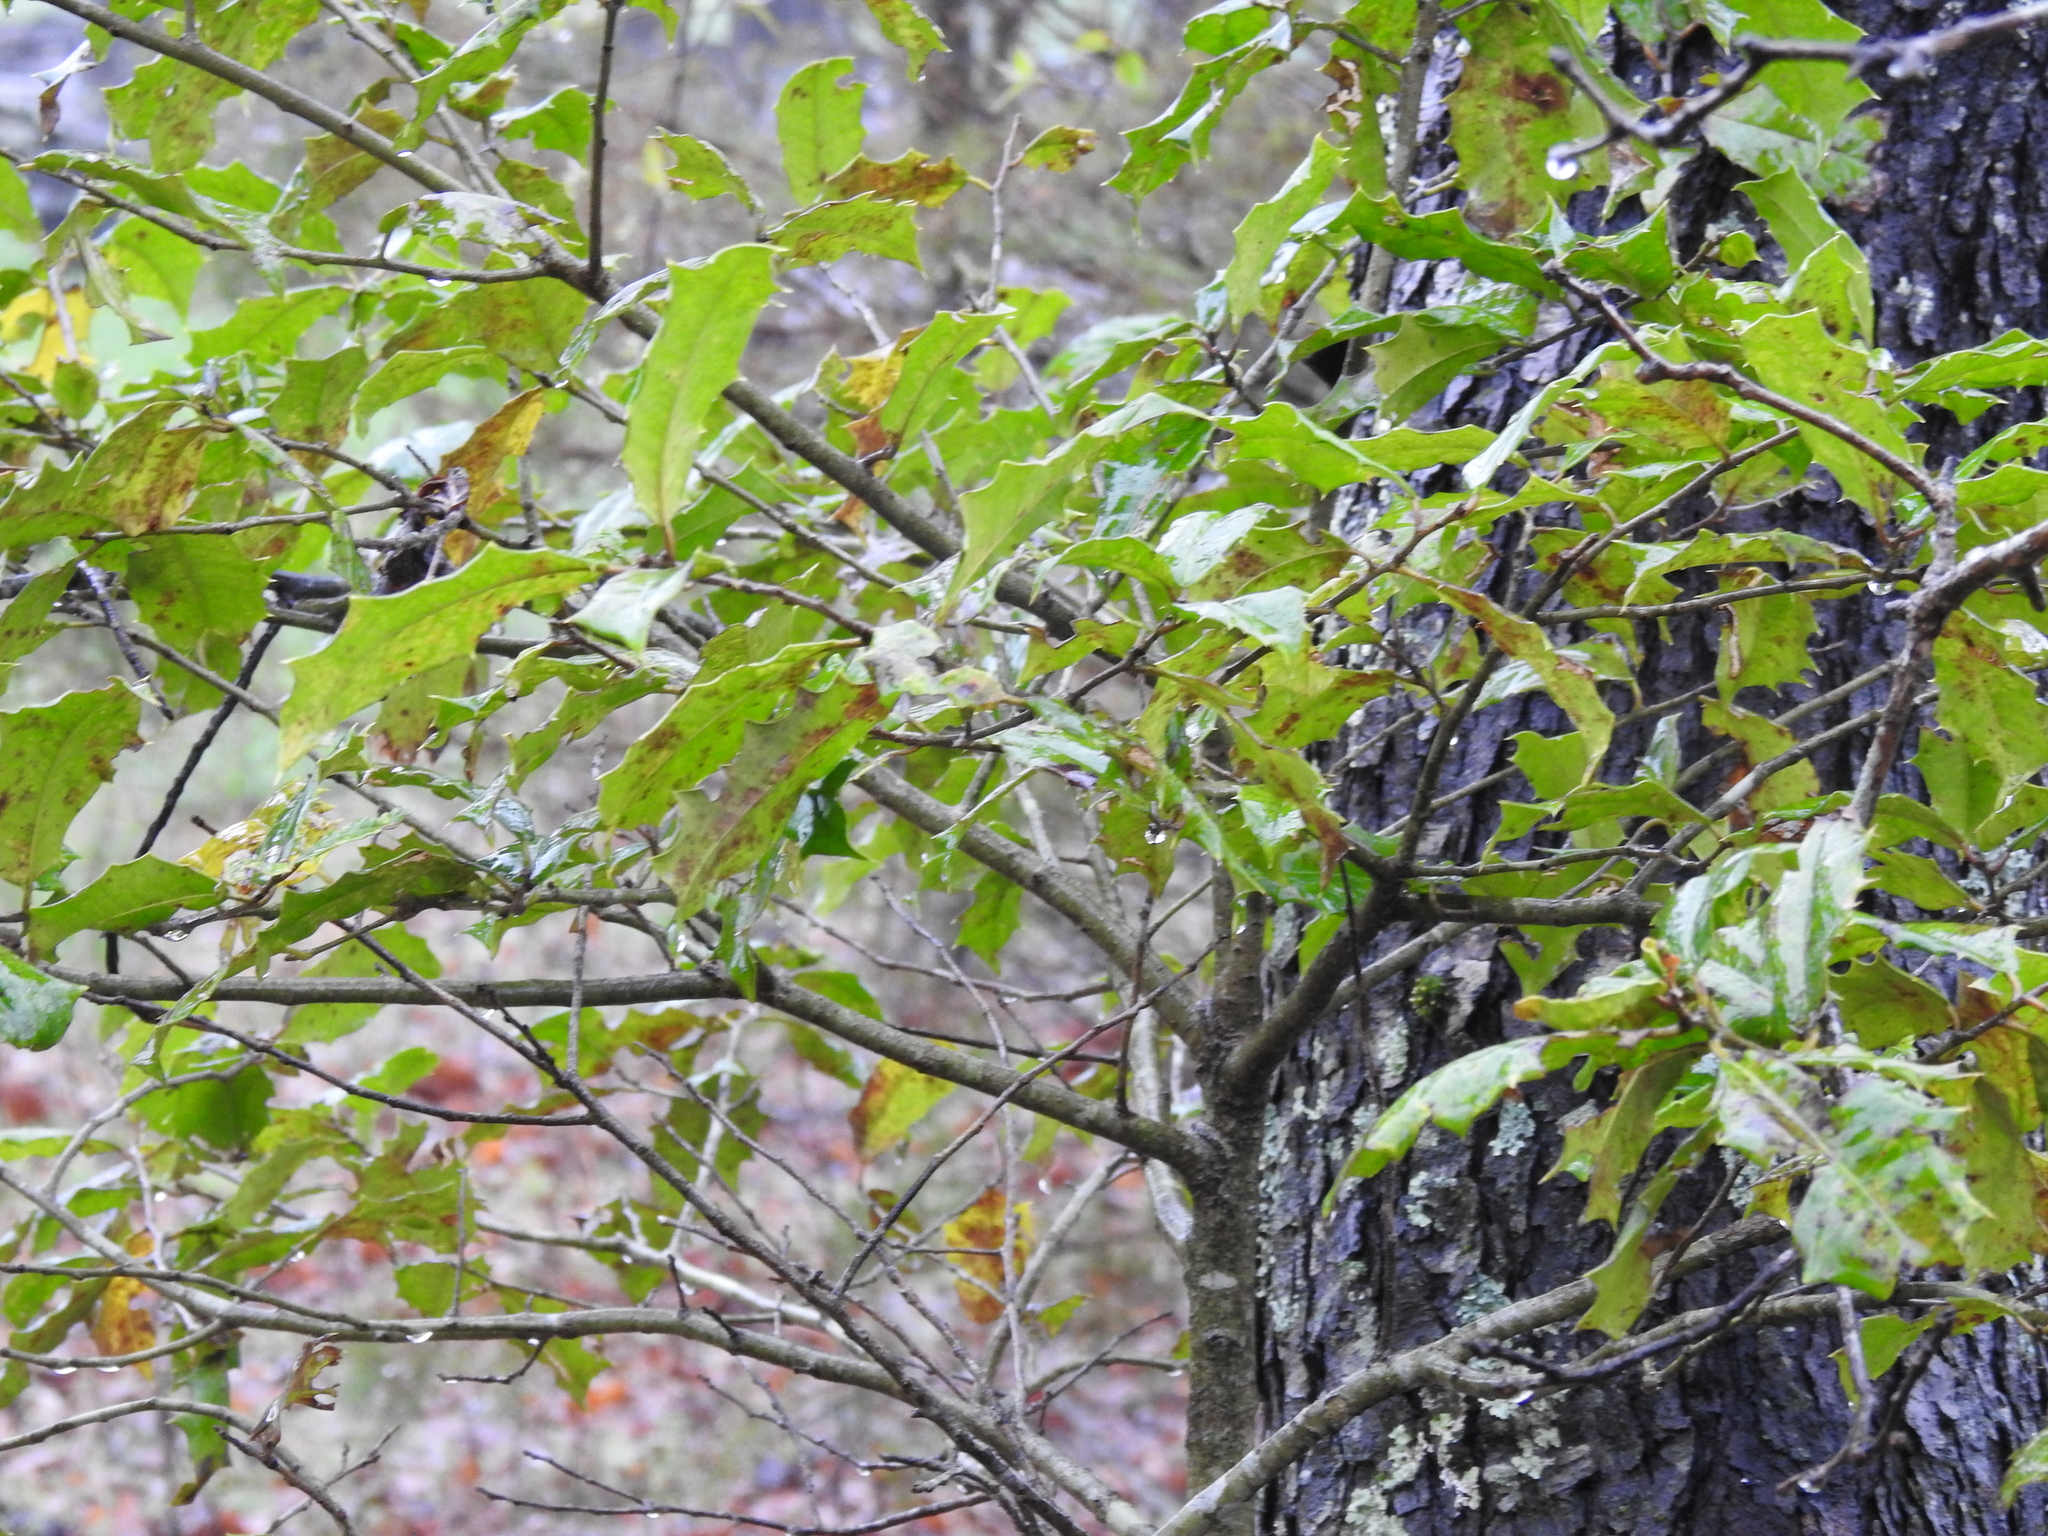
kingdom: Plantae
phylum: Tracheophyta
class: Magnoliopsida
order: Aquifoliales
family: Aquifoliaceae
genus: Ilex
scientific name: Ilex opaca
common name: American holly
